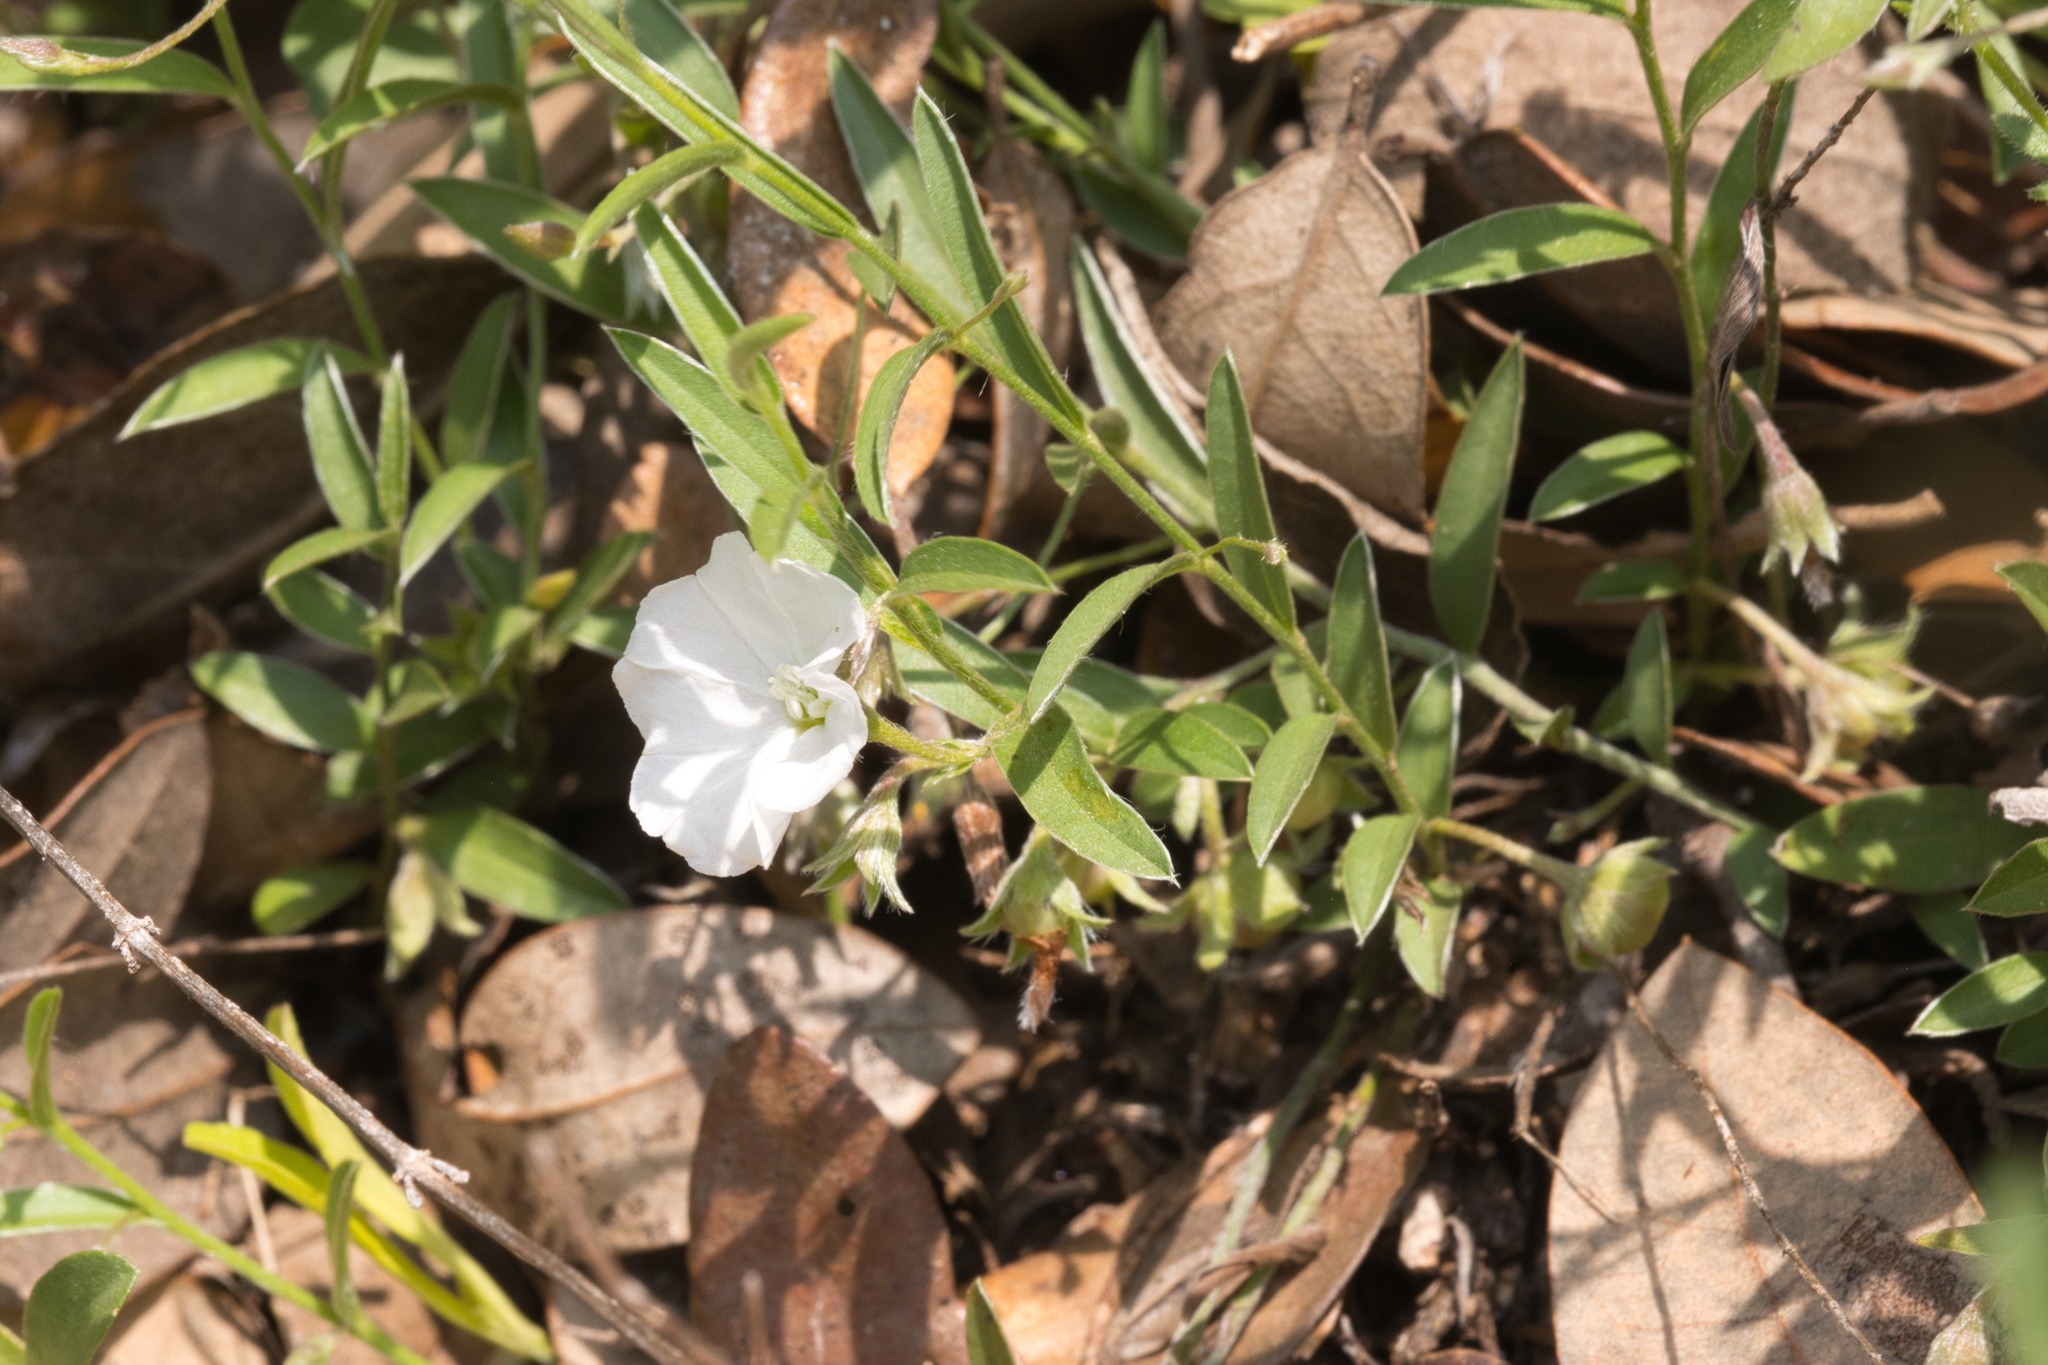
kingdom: Plantae
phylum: Tracheophyta
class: Magnoliopsida
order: Solanales
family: Convolvulaceae
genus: Evolvulus
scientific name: Evolvulus sericeus
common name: Blue dots
